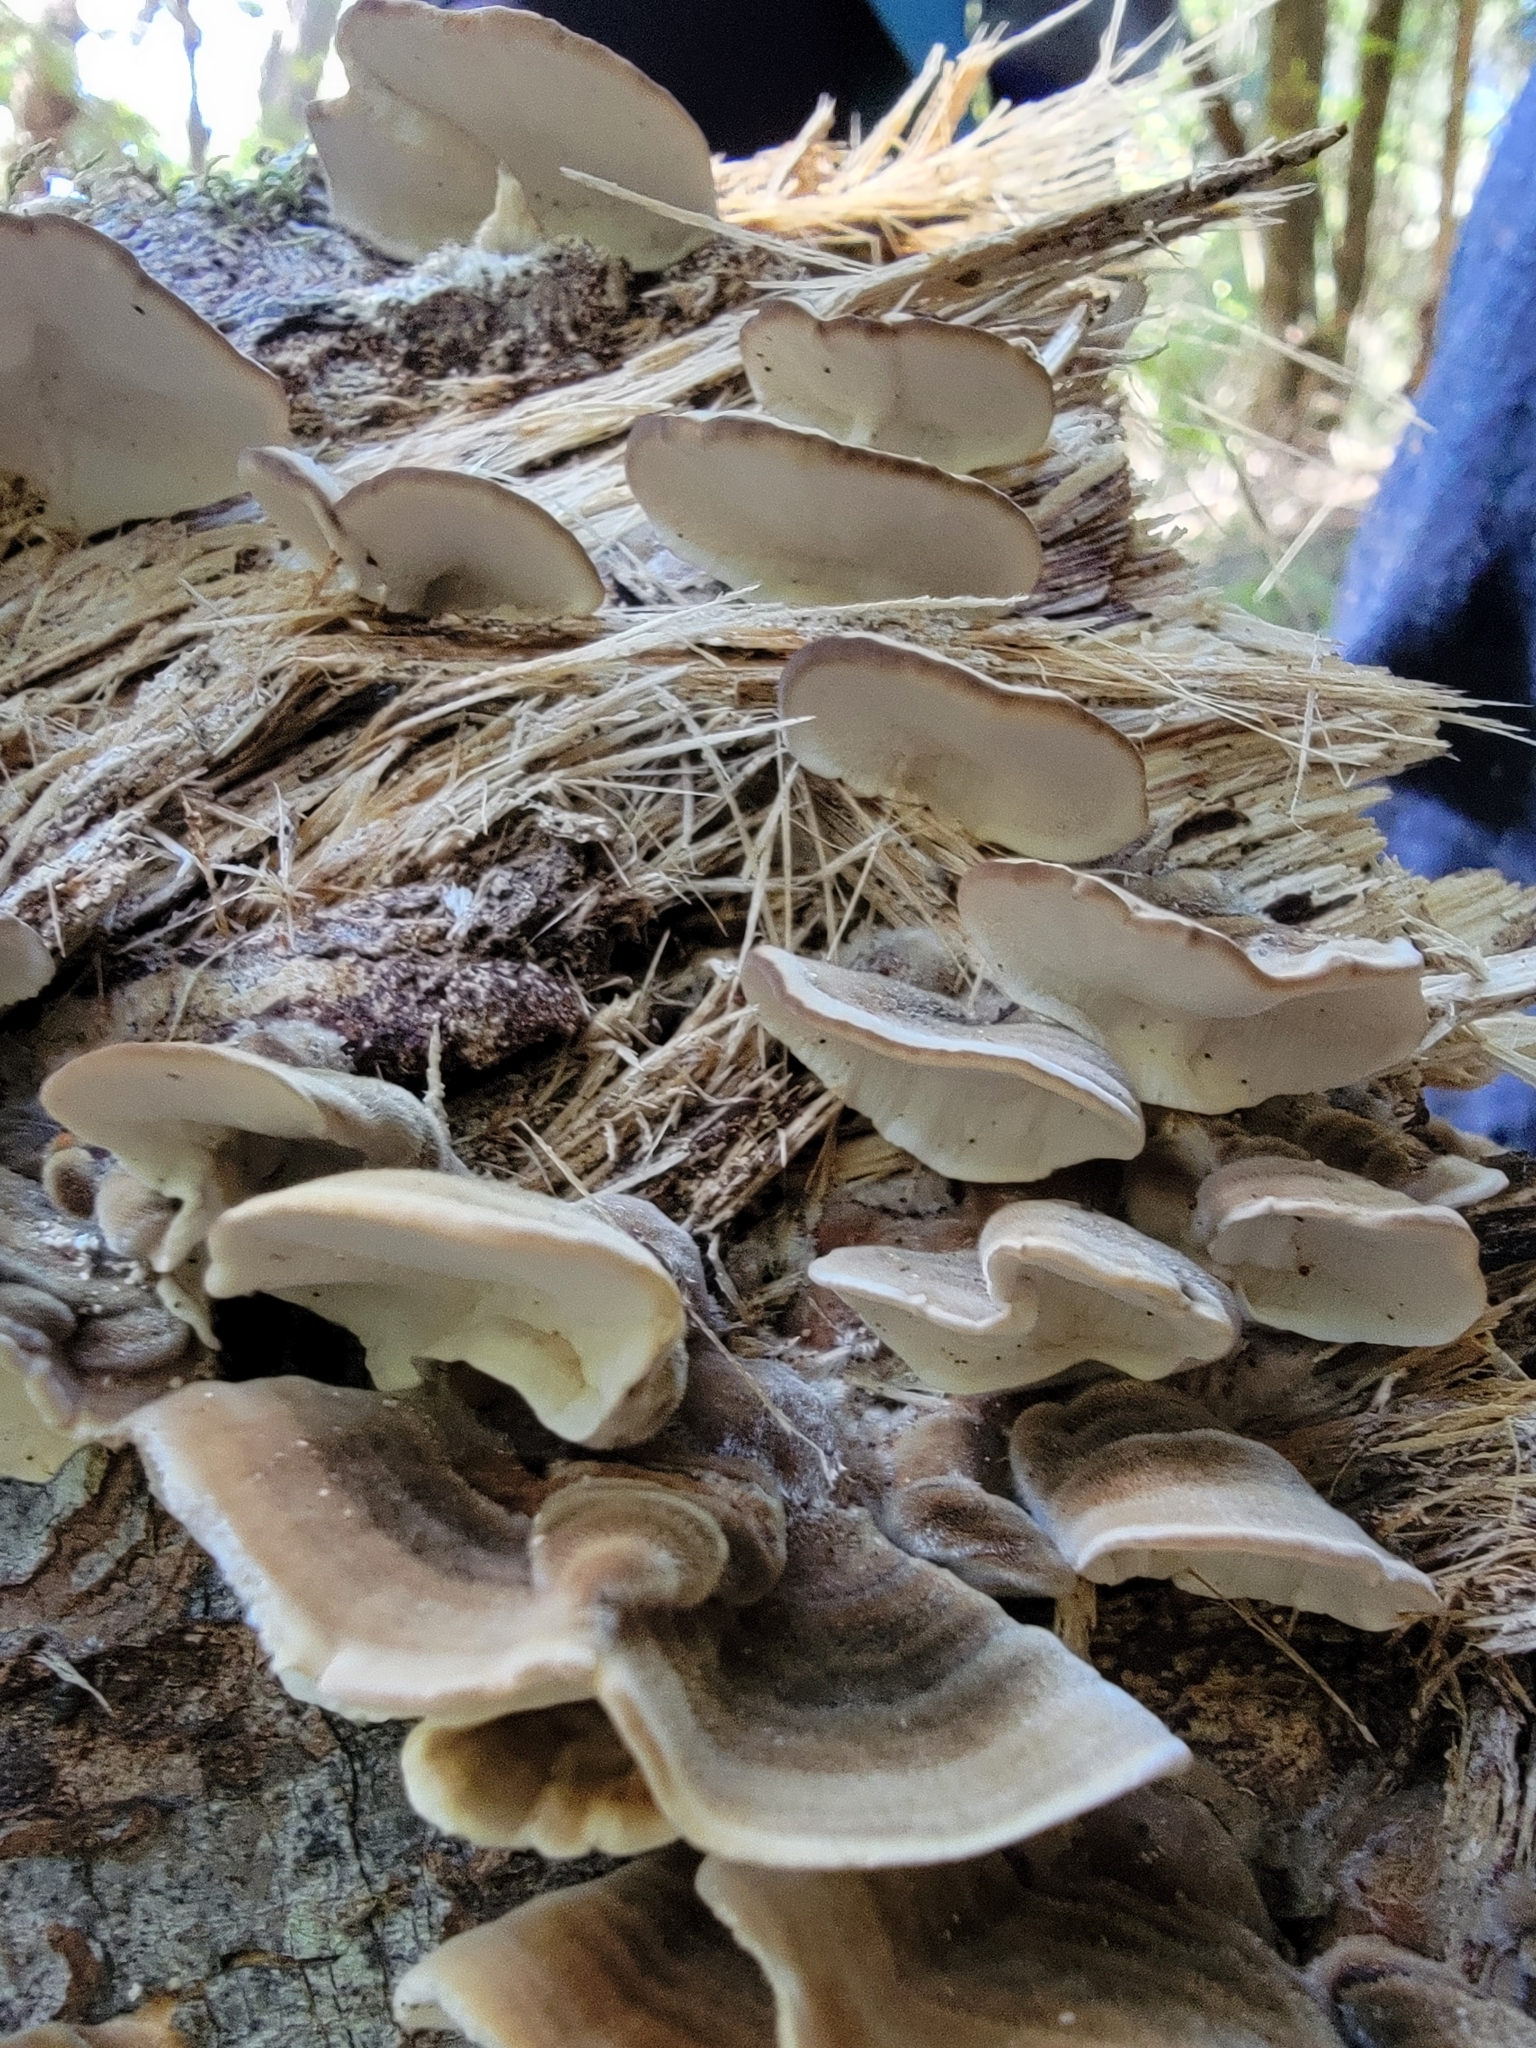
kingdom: Fungi
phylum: Basidiomycota
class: Agaricomycetes
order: Polyporales
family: Polyporaceae
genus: Trametes
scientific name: Trametes versicolor
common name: Turkeytail
